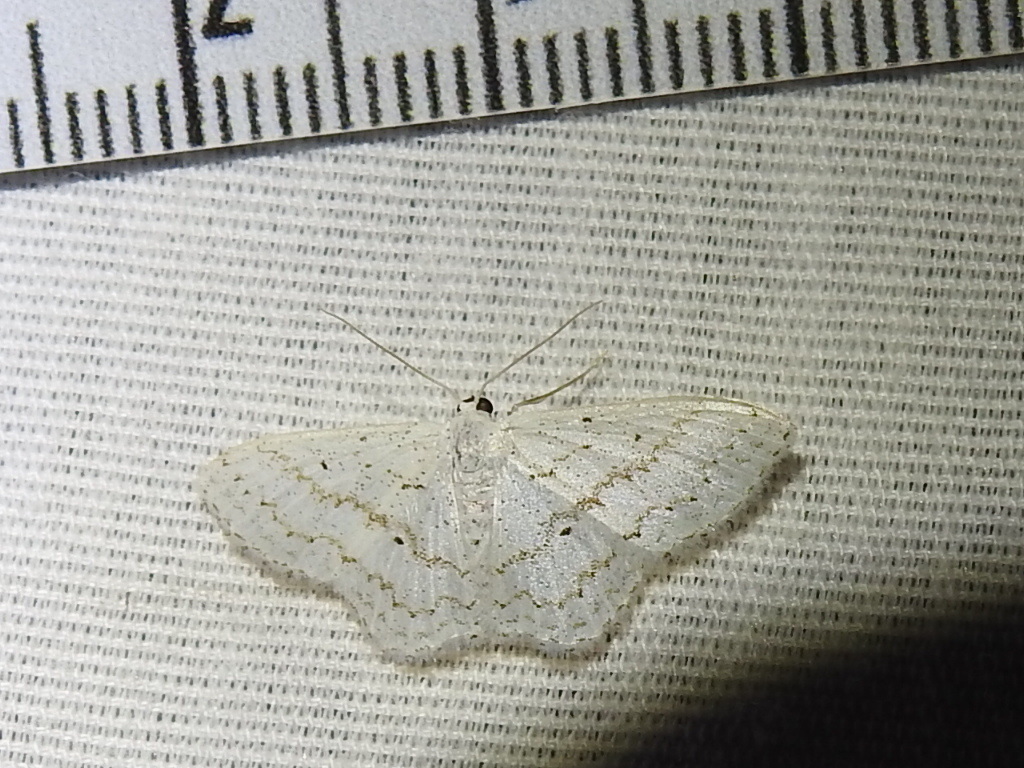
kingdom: Animalia
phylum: Arthropoda
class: Insecta
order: Lepidoptera
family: Geometridae
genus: Idaea
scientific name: Idaea tacturata
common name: Dot-lined wave
